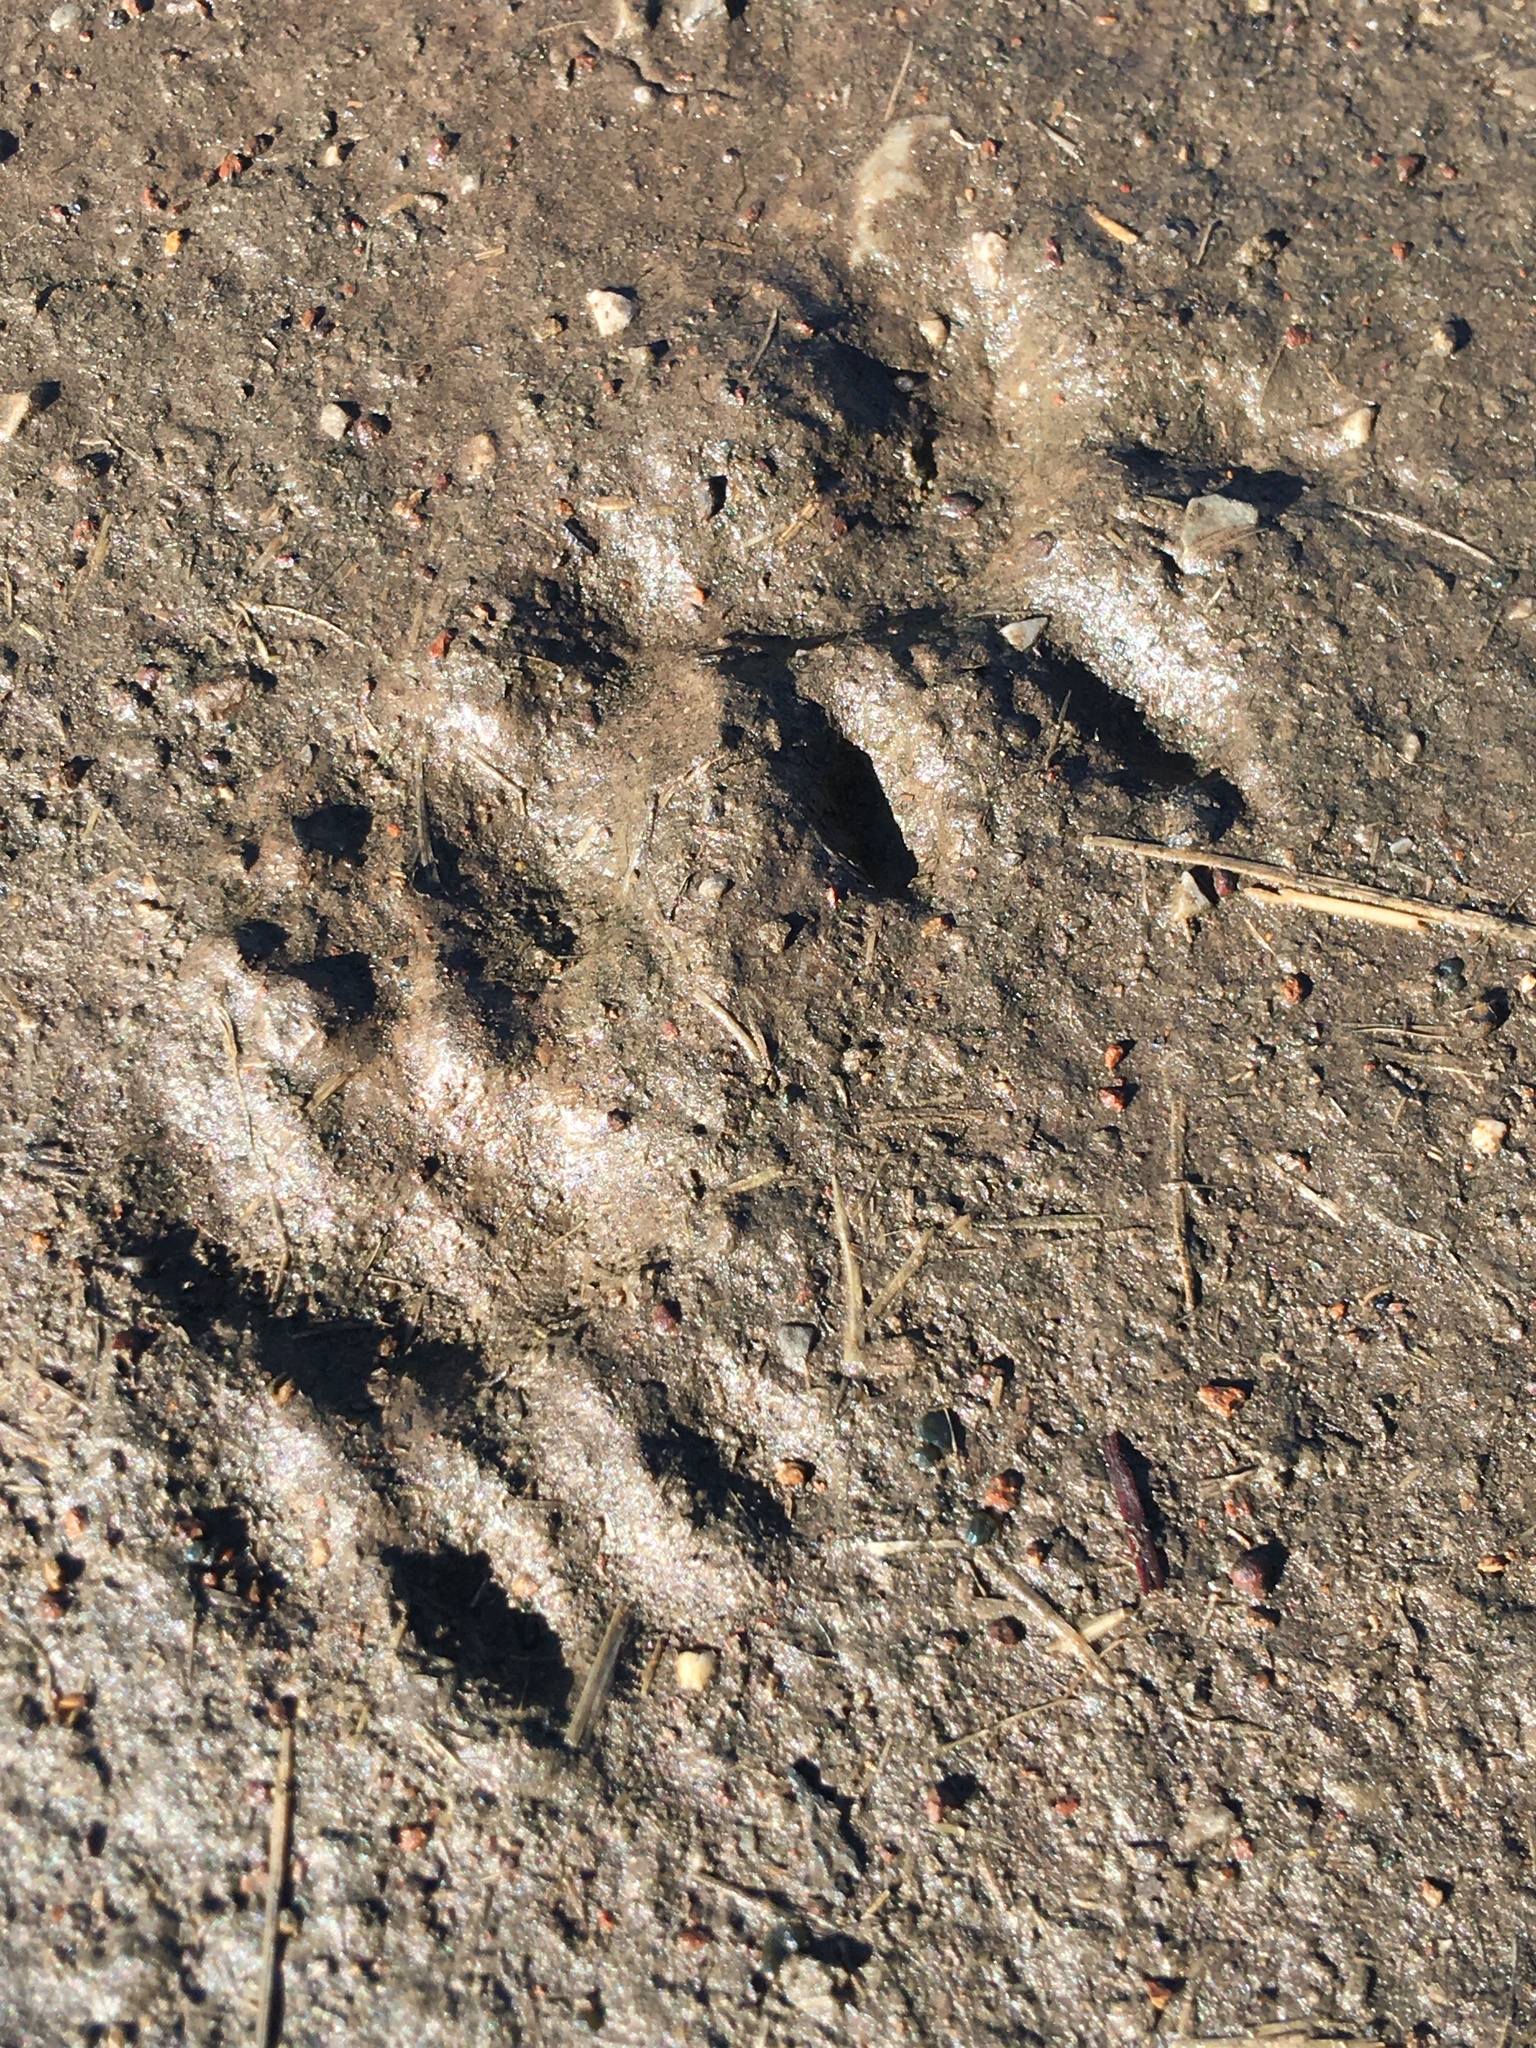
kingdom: Animalia
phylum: Chordata
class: Mammalia
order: Carnivora
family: Procyonidae
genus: Procyon
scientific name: Procyon lotor
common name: Raccoon
